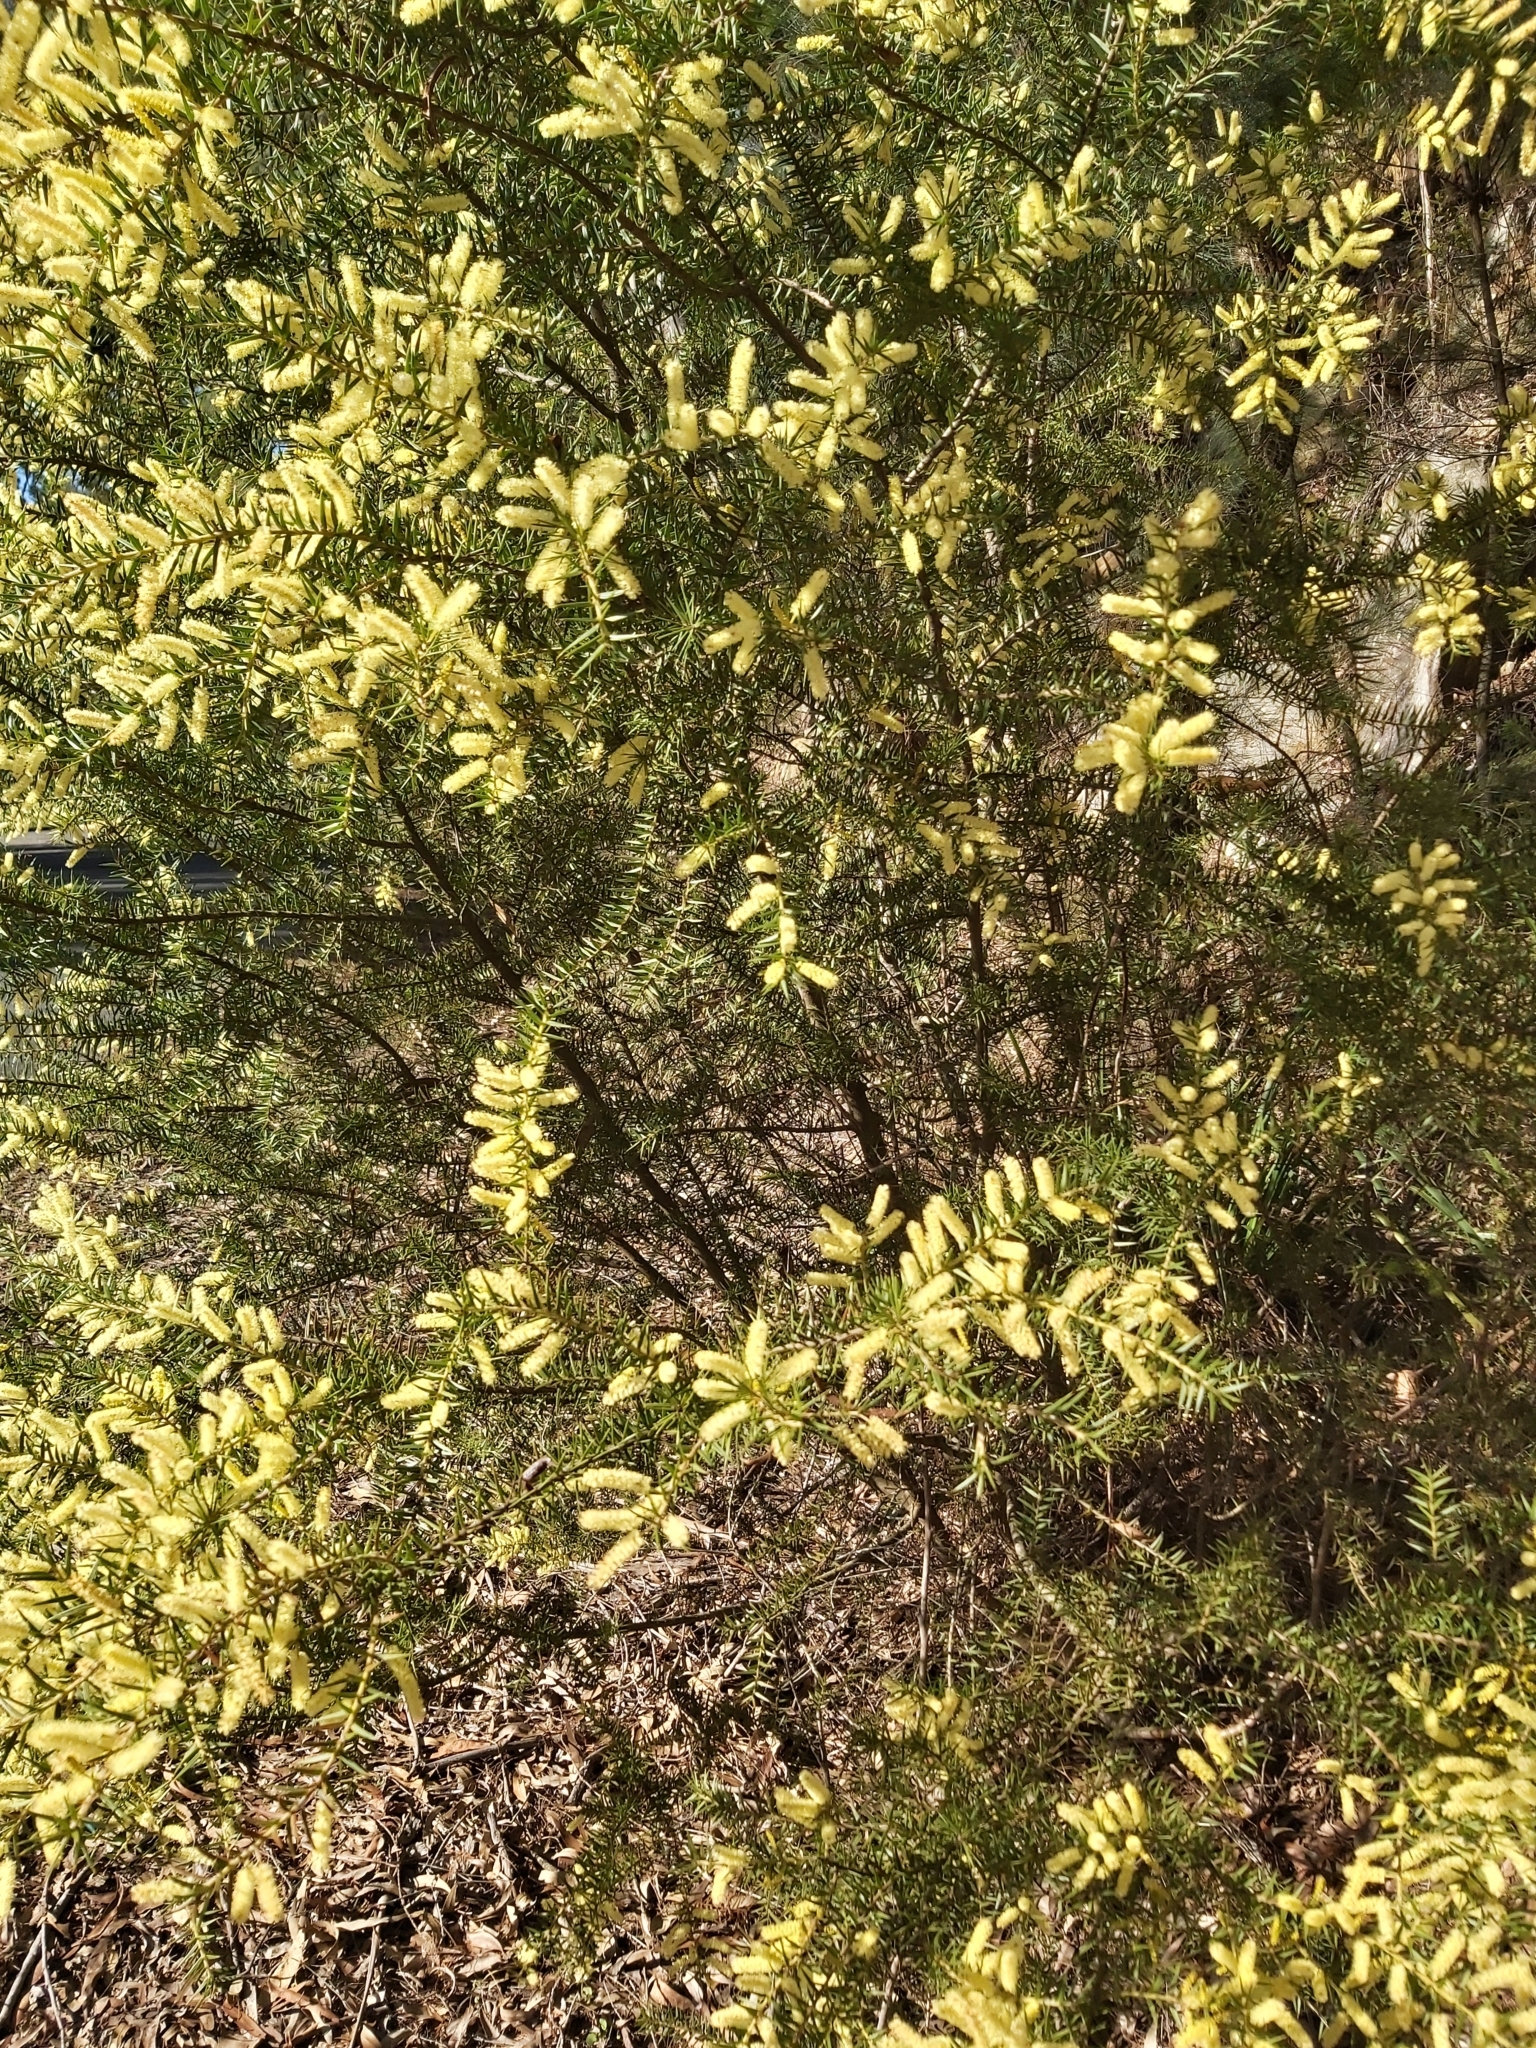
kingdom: Plantae
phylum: Tracheophyta
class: Magnoliopsida
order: Fabales
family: Fabaceae
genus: Acacia
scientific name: Acacia oxycedrus
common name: Spike wattle
